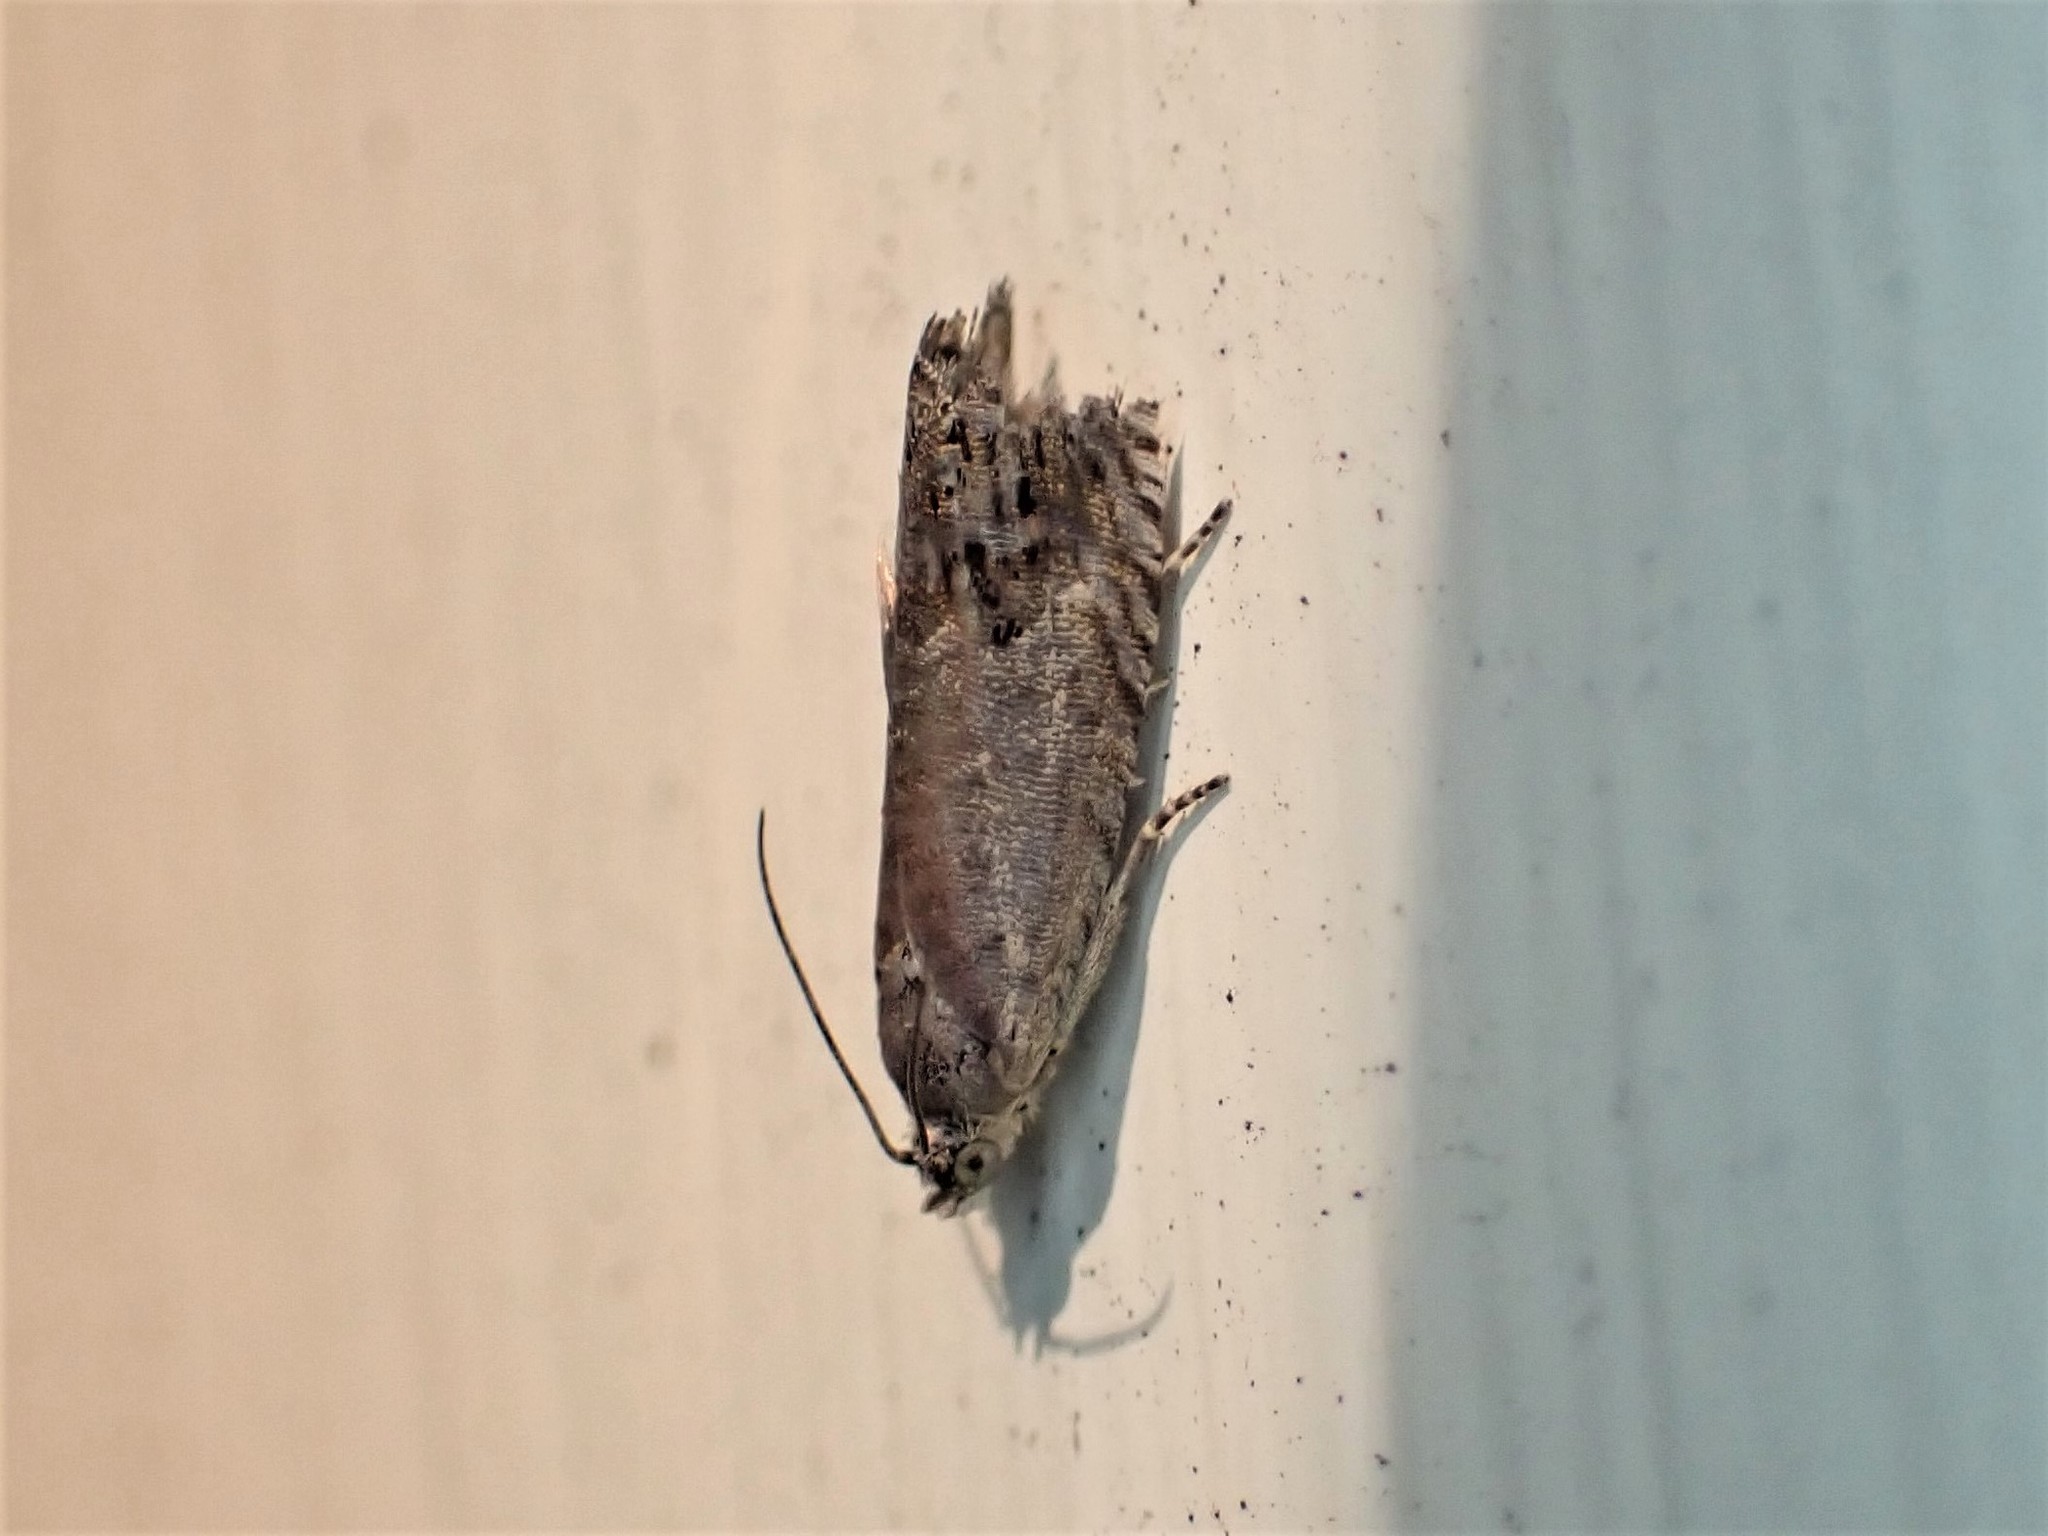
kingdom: Animalia
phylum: Arthropoda
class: Insecta
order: Lepidoptera
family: Tortricidae
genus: Cydia
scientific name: Cydia succedana
